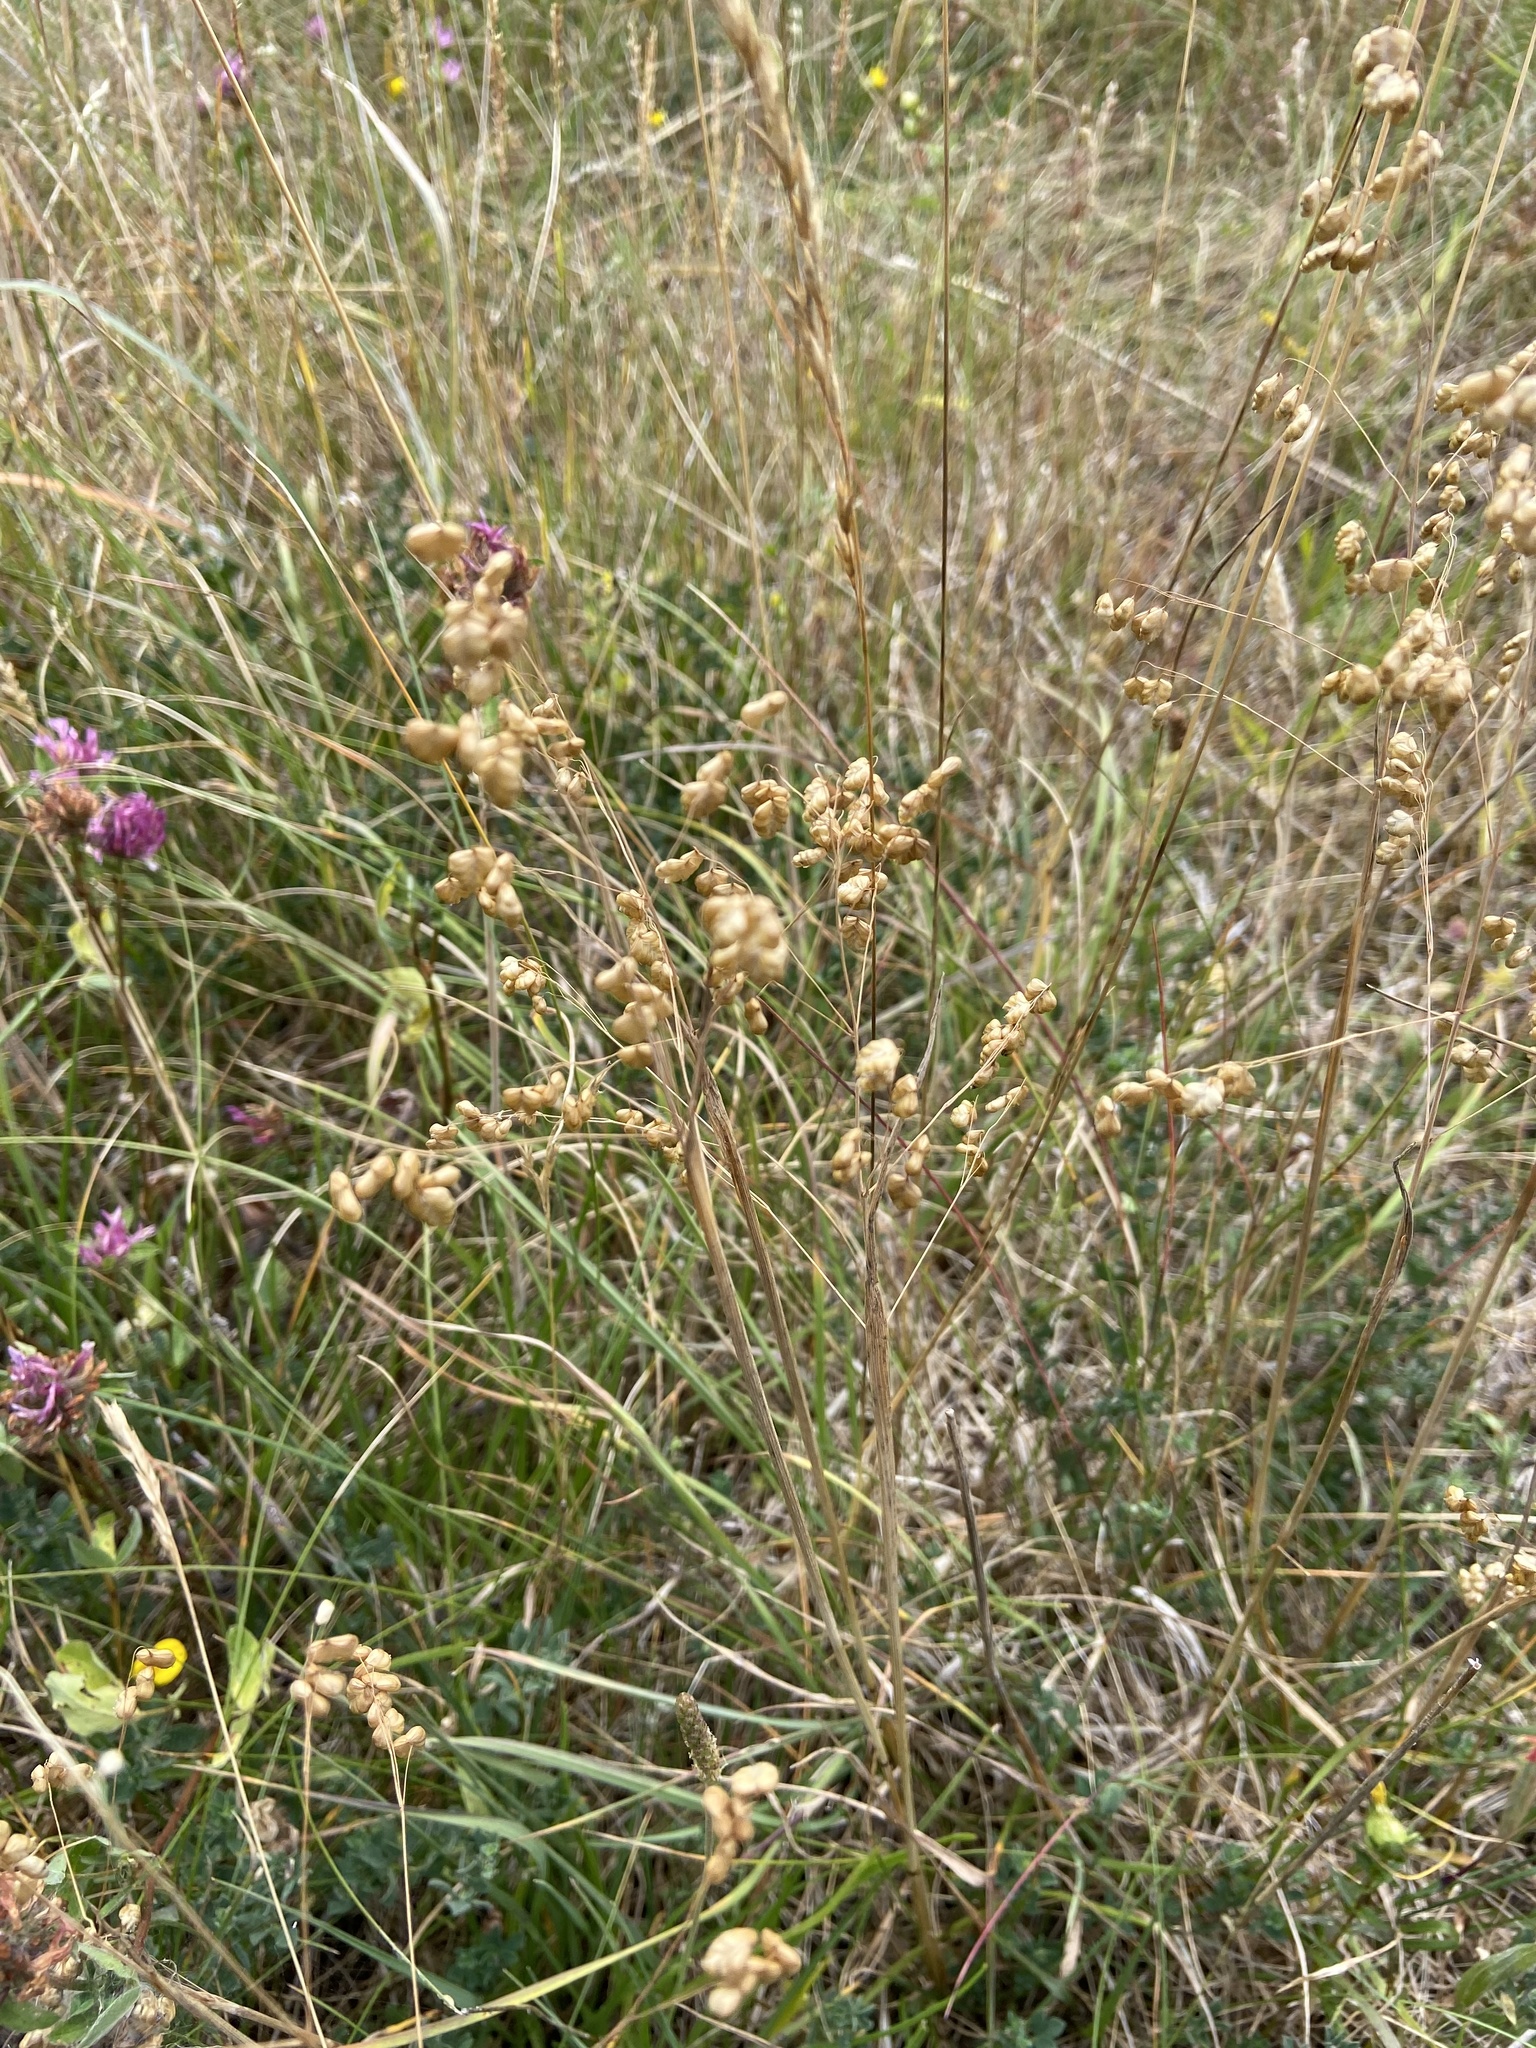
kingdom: Plantae
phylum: Tracheophyta
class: Liliopsida
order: Poales
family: Poaceae
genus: Briza
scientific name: Briza media
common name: Quaking grass
